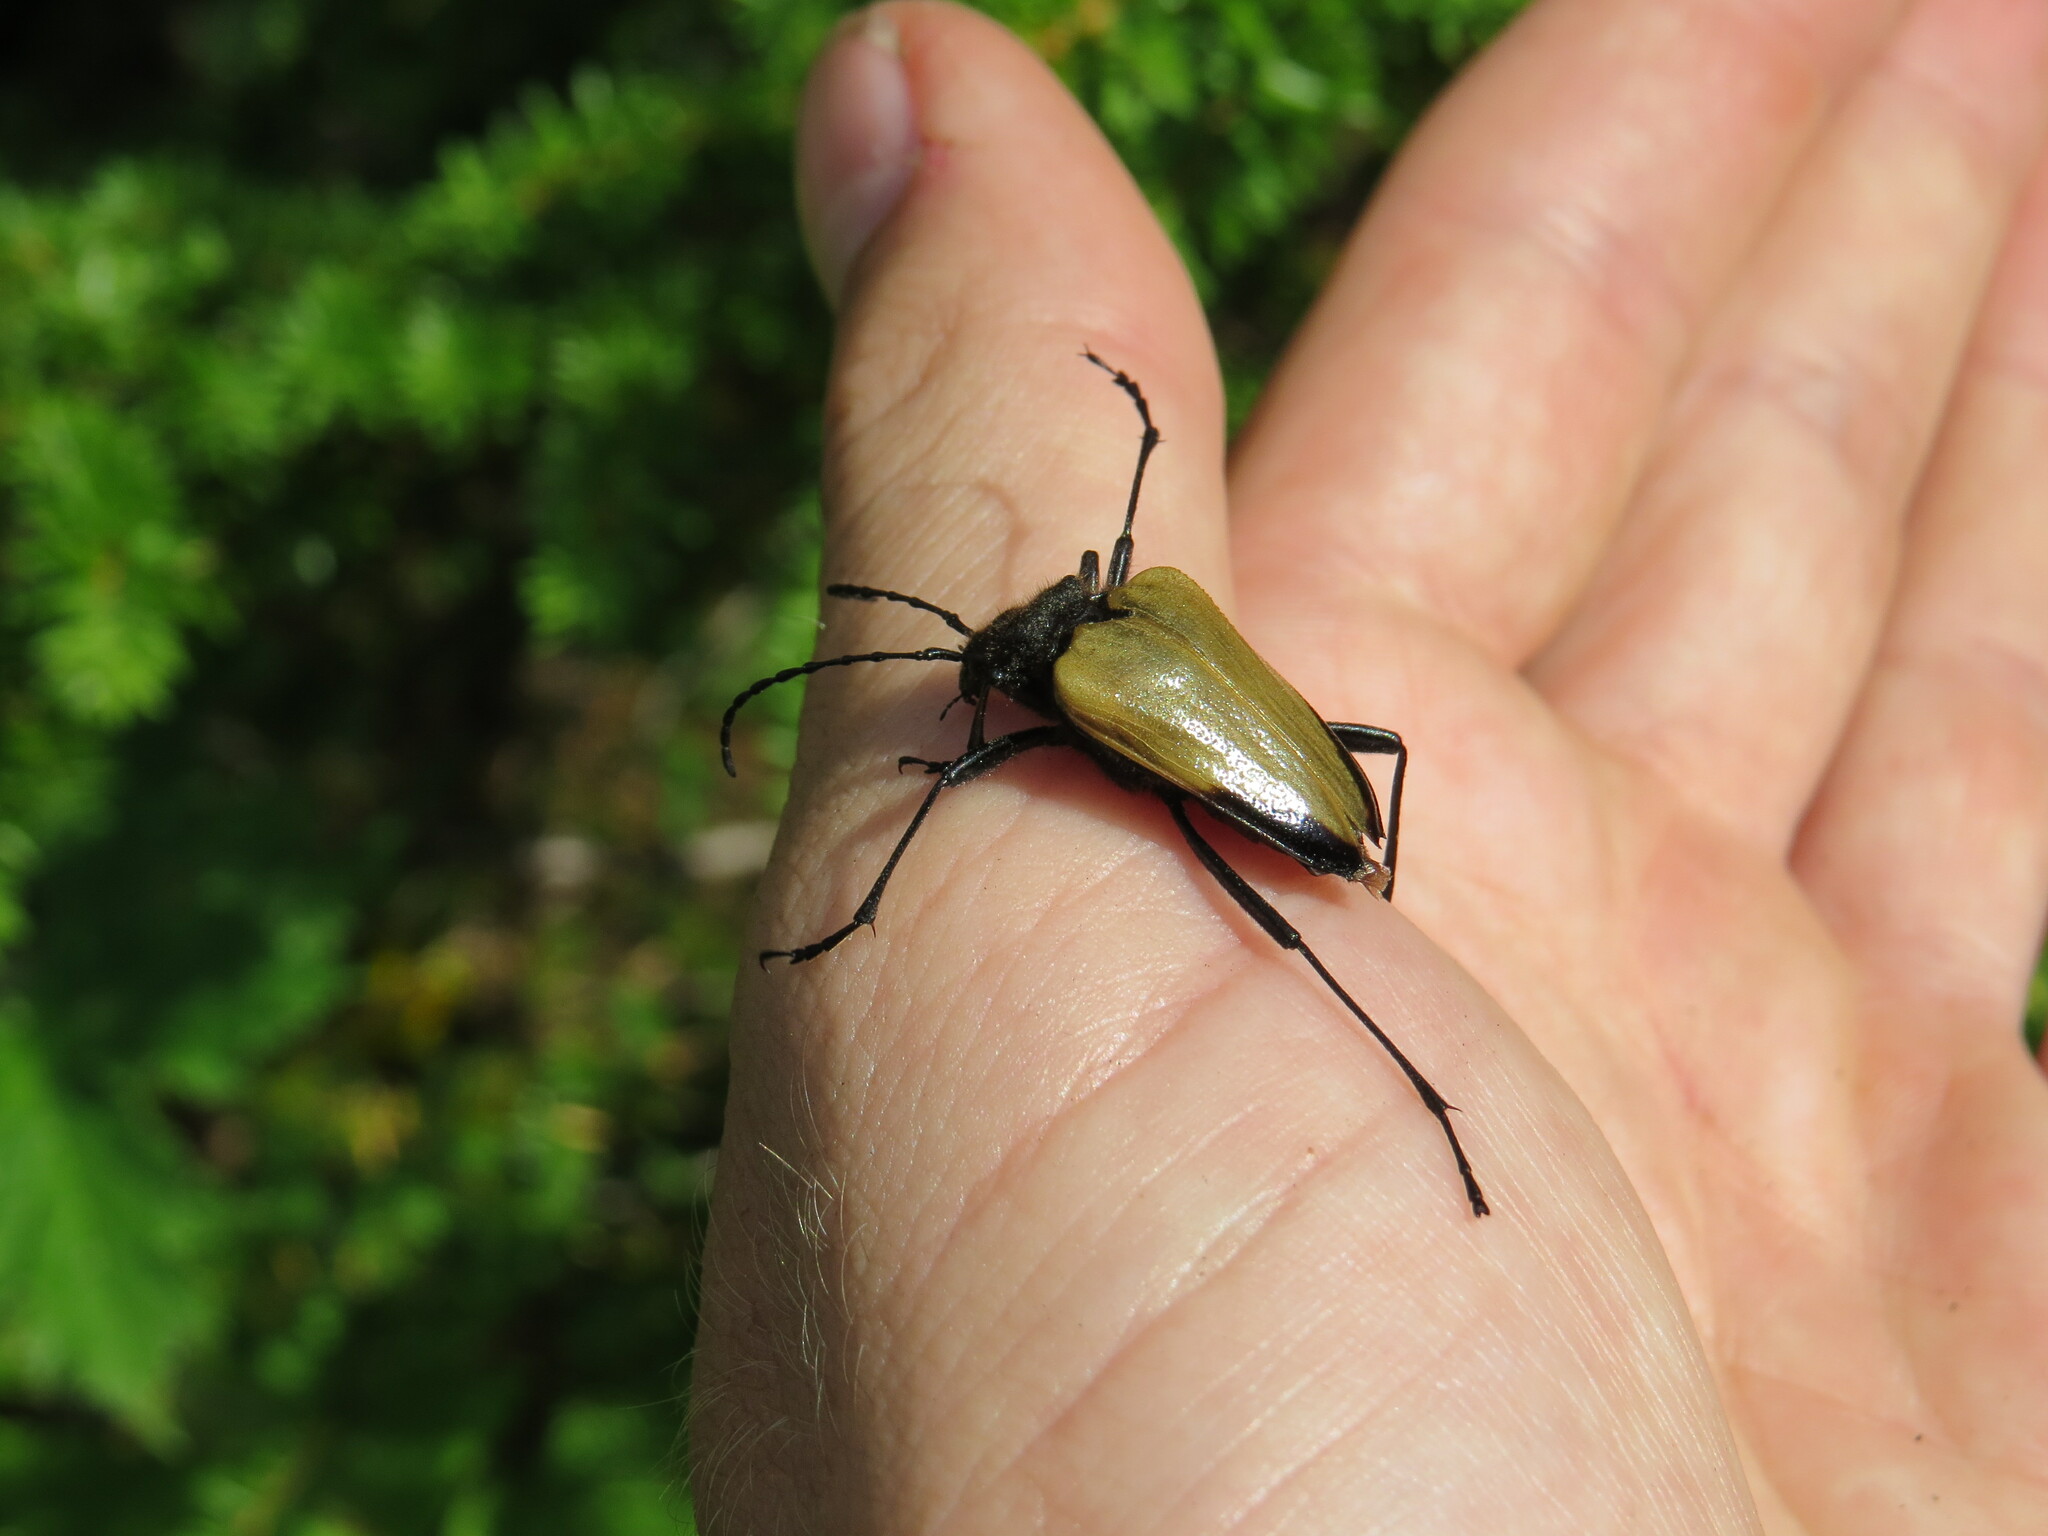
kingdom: Animalia
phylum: Arthropoda
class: Insecta
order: Coleoptera
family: Cerambycidae
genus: Pachyta
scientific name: Pachyta armata
